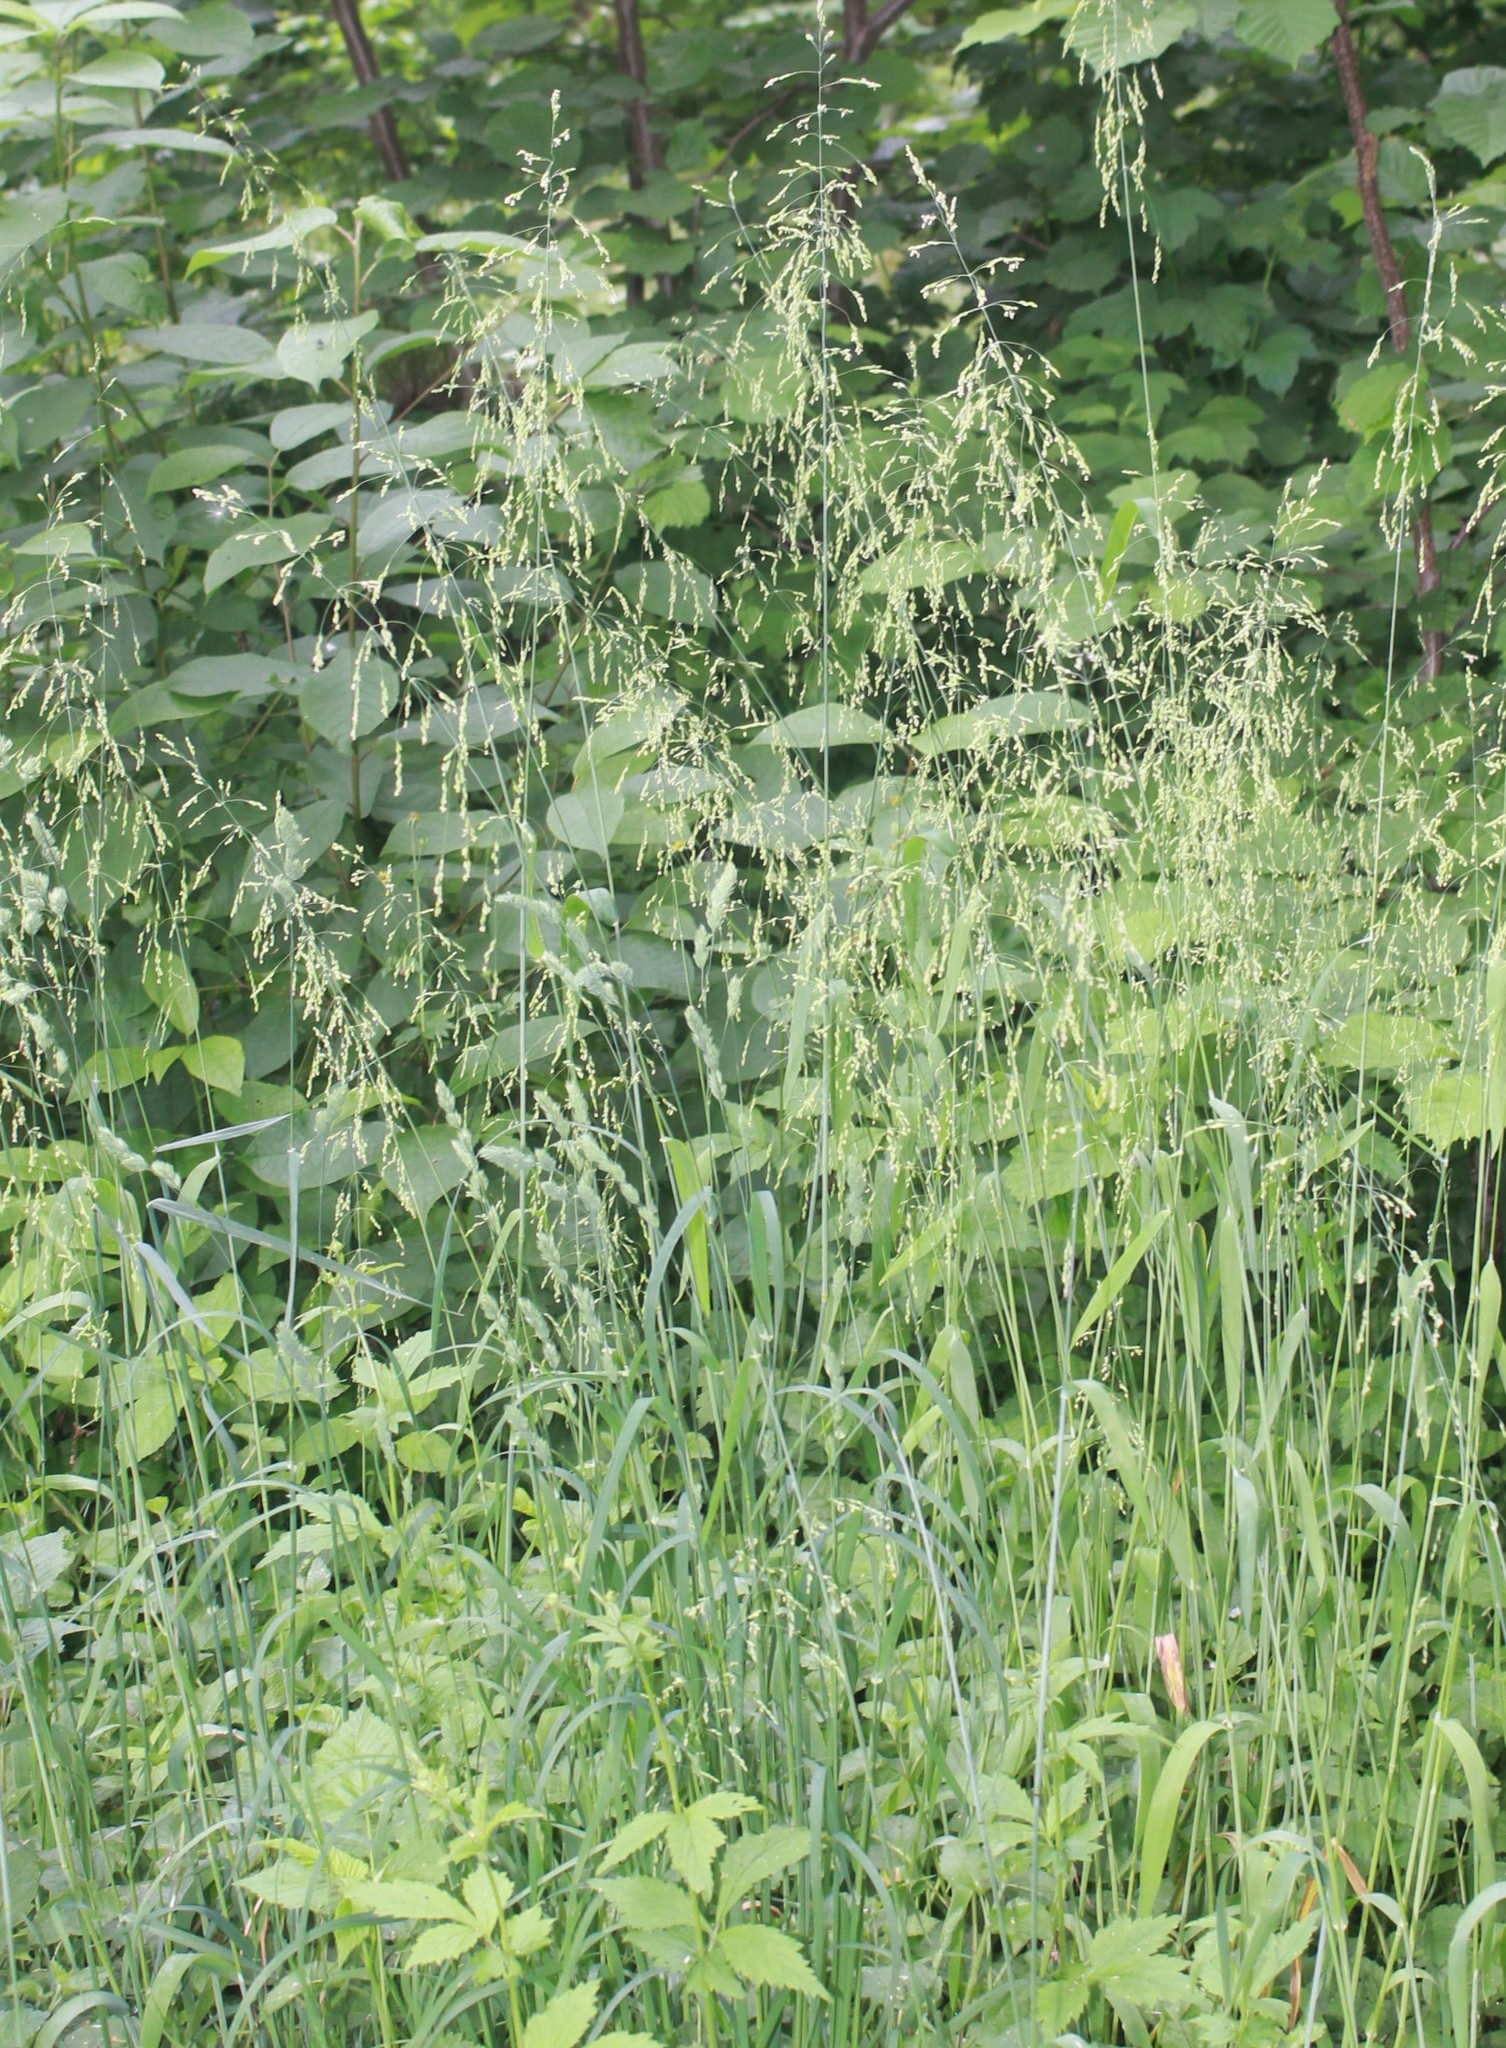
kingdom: Plantae
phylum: Tracheophyta
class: Liliopsida
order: Poales
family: Poaceae
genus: Milium
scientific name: Milium effusum
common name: Wood millet
